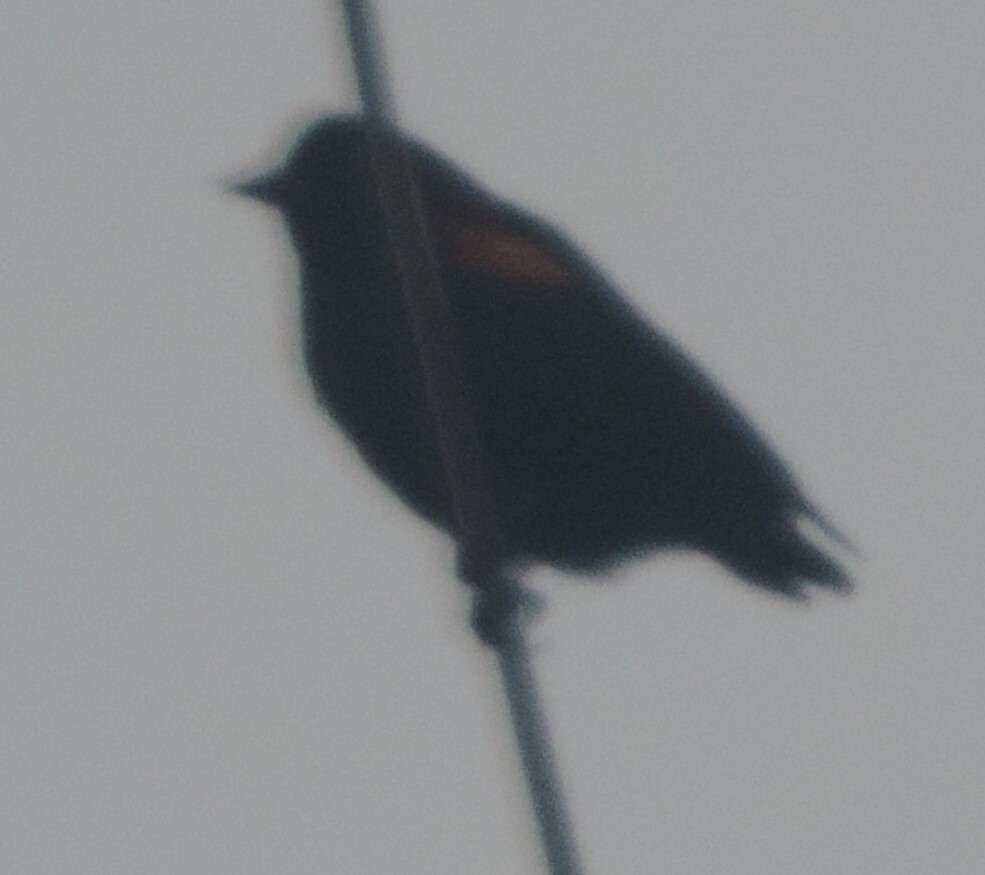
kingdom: Animalia
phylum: Chordata
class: Aves
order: Passeriformes
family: Icteridae
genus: Agelaius
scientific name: Agelaius phoeniceus
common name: Red-winged blackbird
